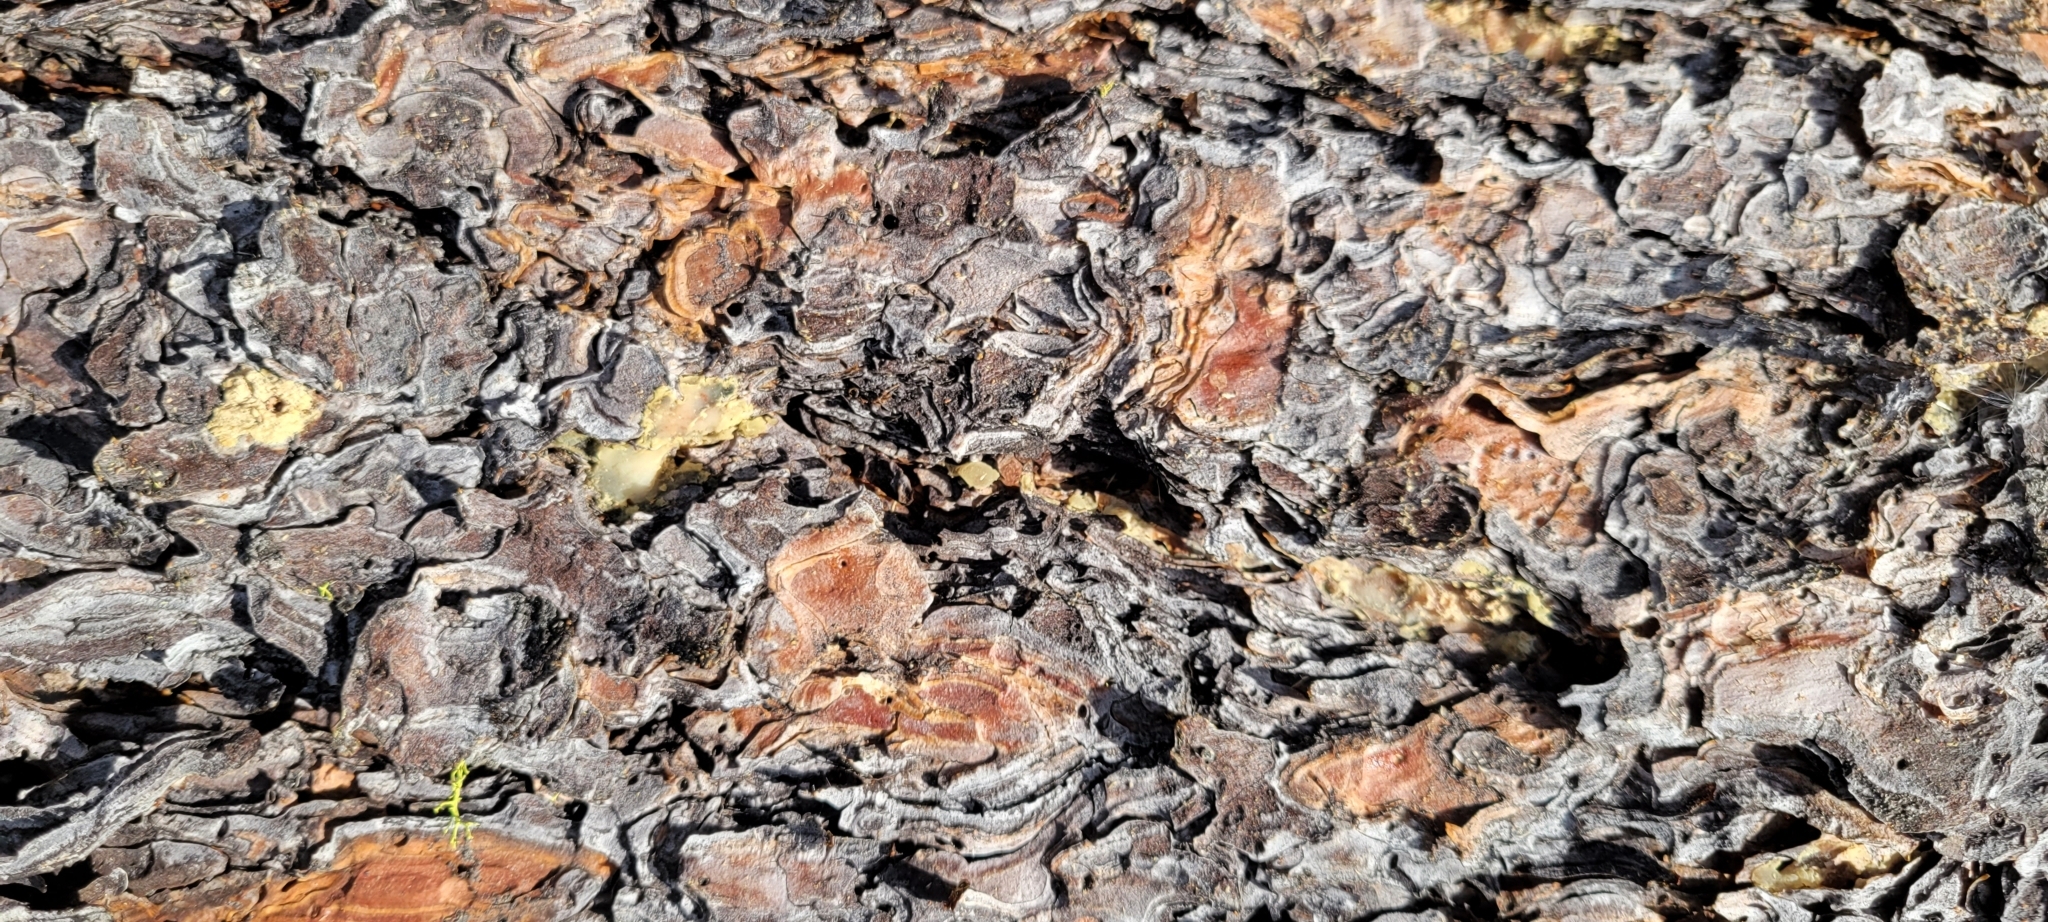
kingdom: Plantae
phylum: Tracheophyta
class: Pinopsida
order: Pinales
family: Pinaceae
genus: Pinus
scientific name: Pinus ponderosa
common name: Western yellow-pine
